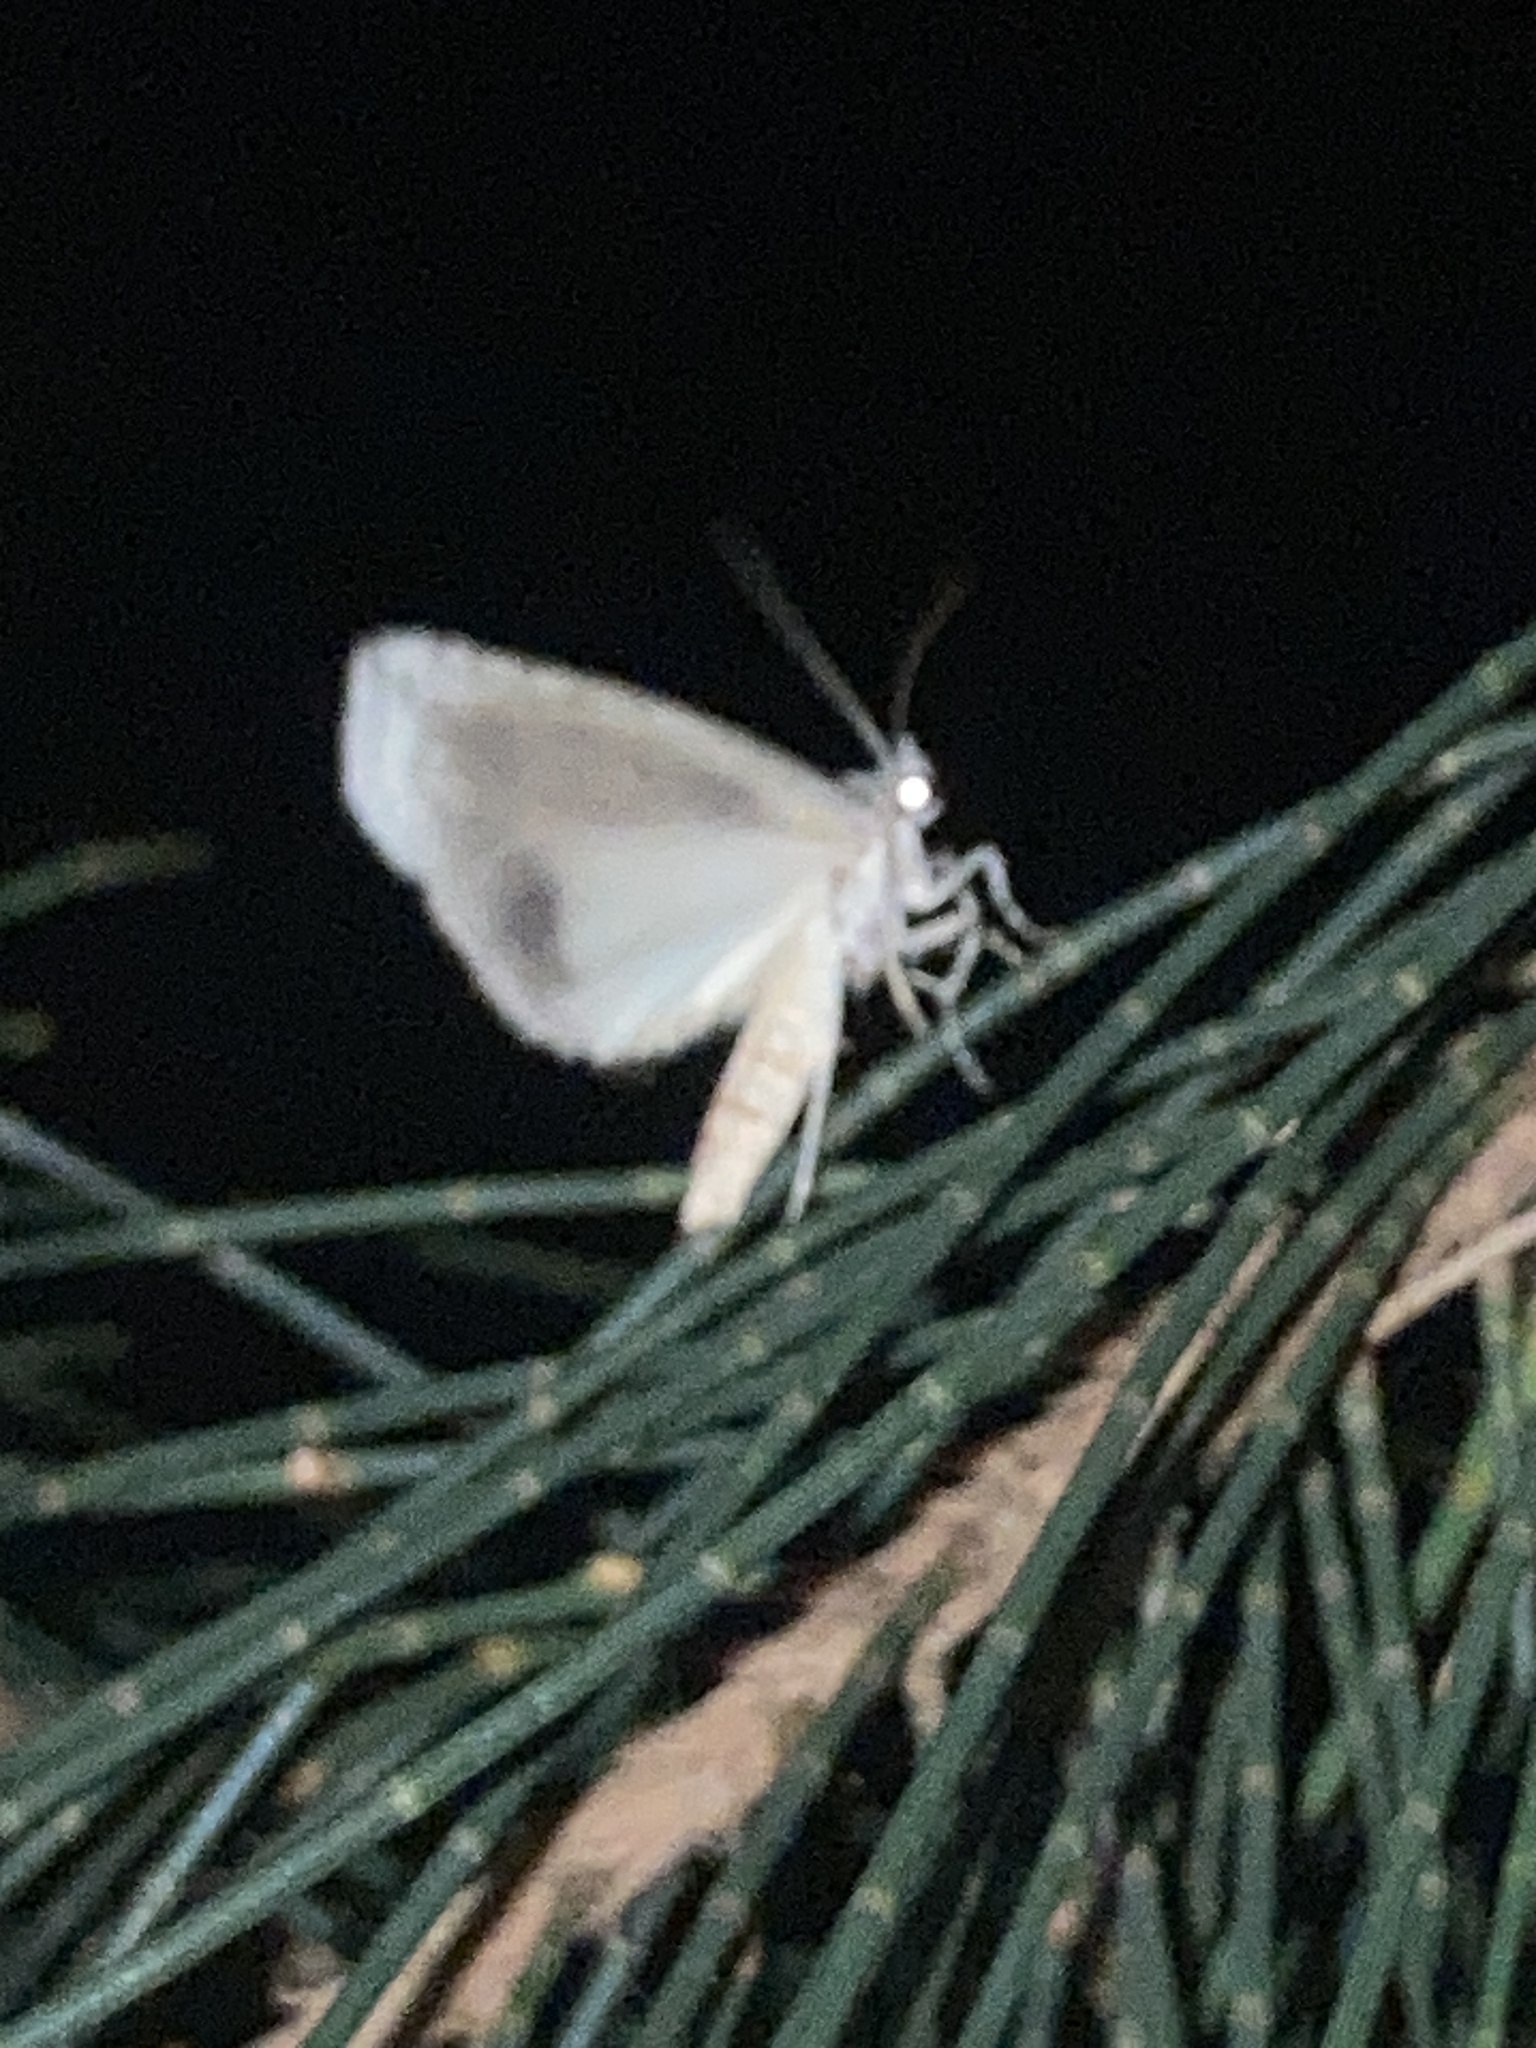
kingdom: Animalia
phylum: Arthropoda
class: Insecta
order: Lepidoptera
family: Nolidae
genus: Calathusa
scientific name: Calathusa basicunea
